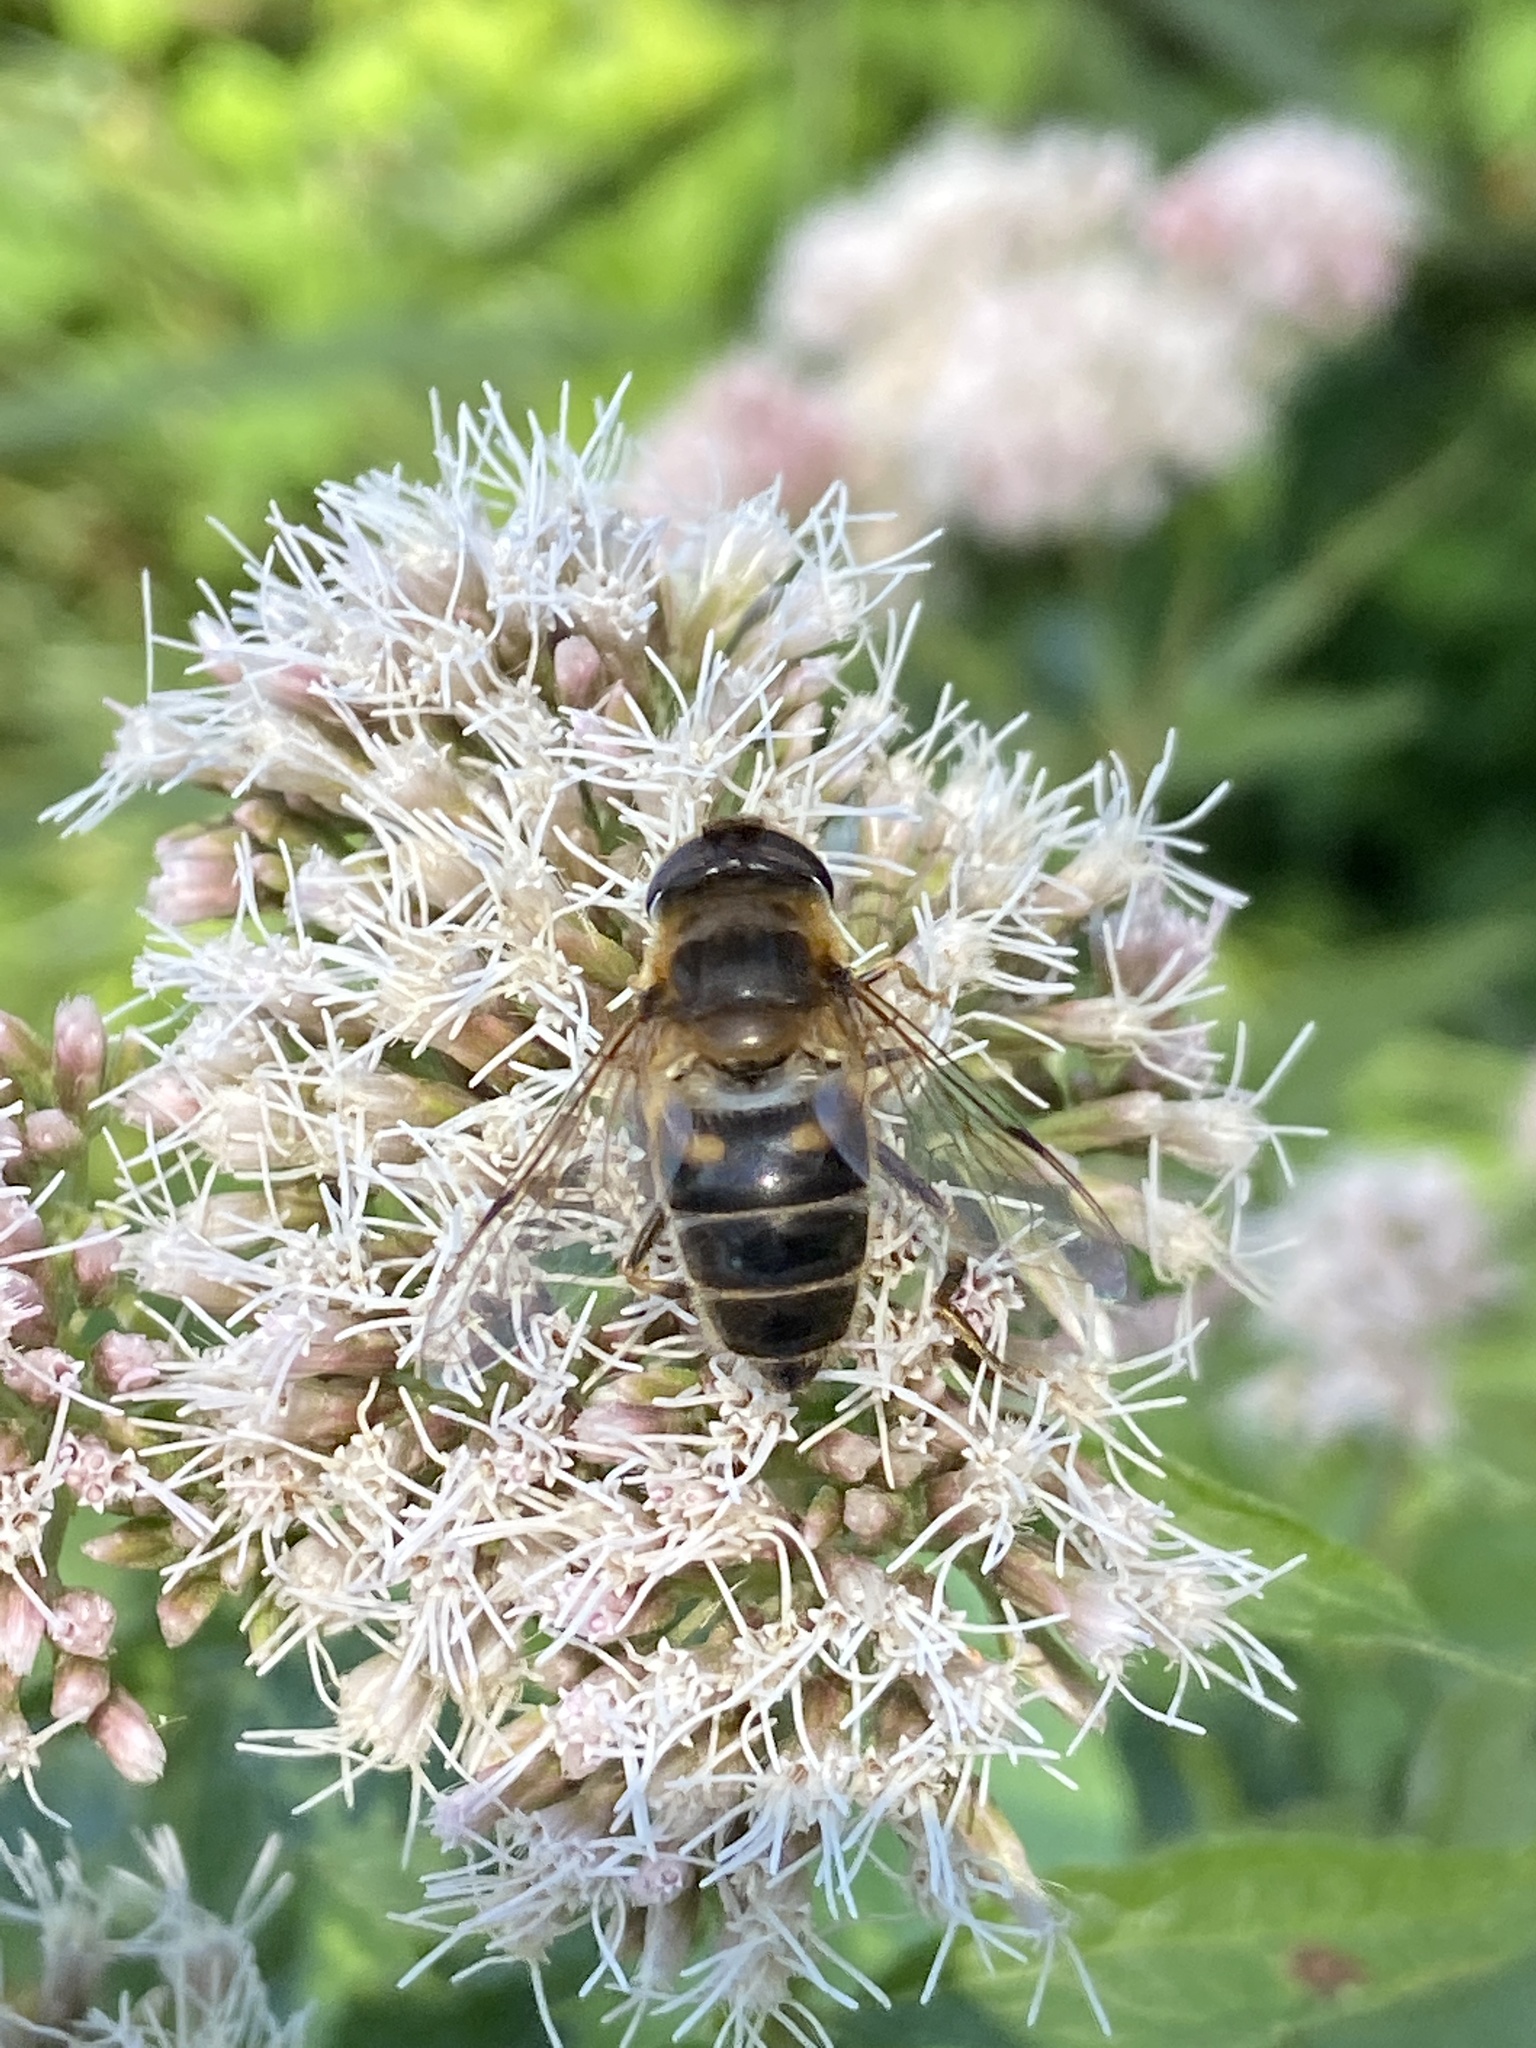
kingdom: Animalia
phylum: Arthropoda
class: Insecta
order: Diptera
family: Syrphidae
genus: Eristalis
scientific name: Eristalis pertinax
